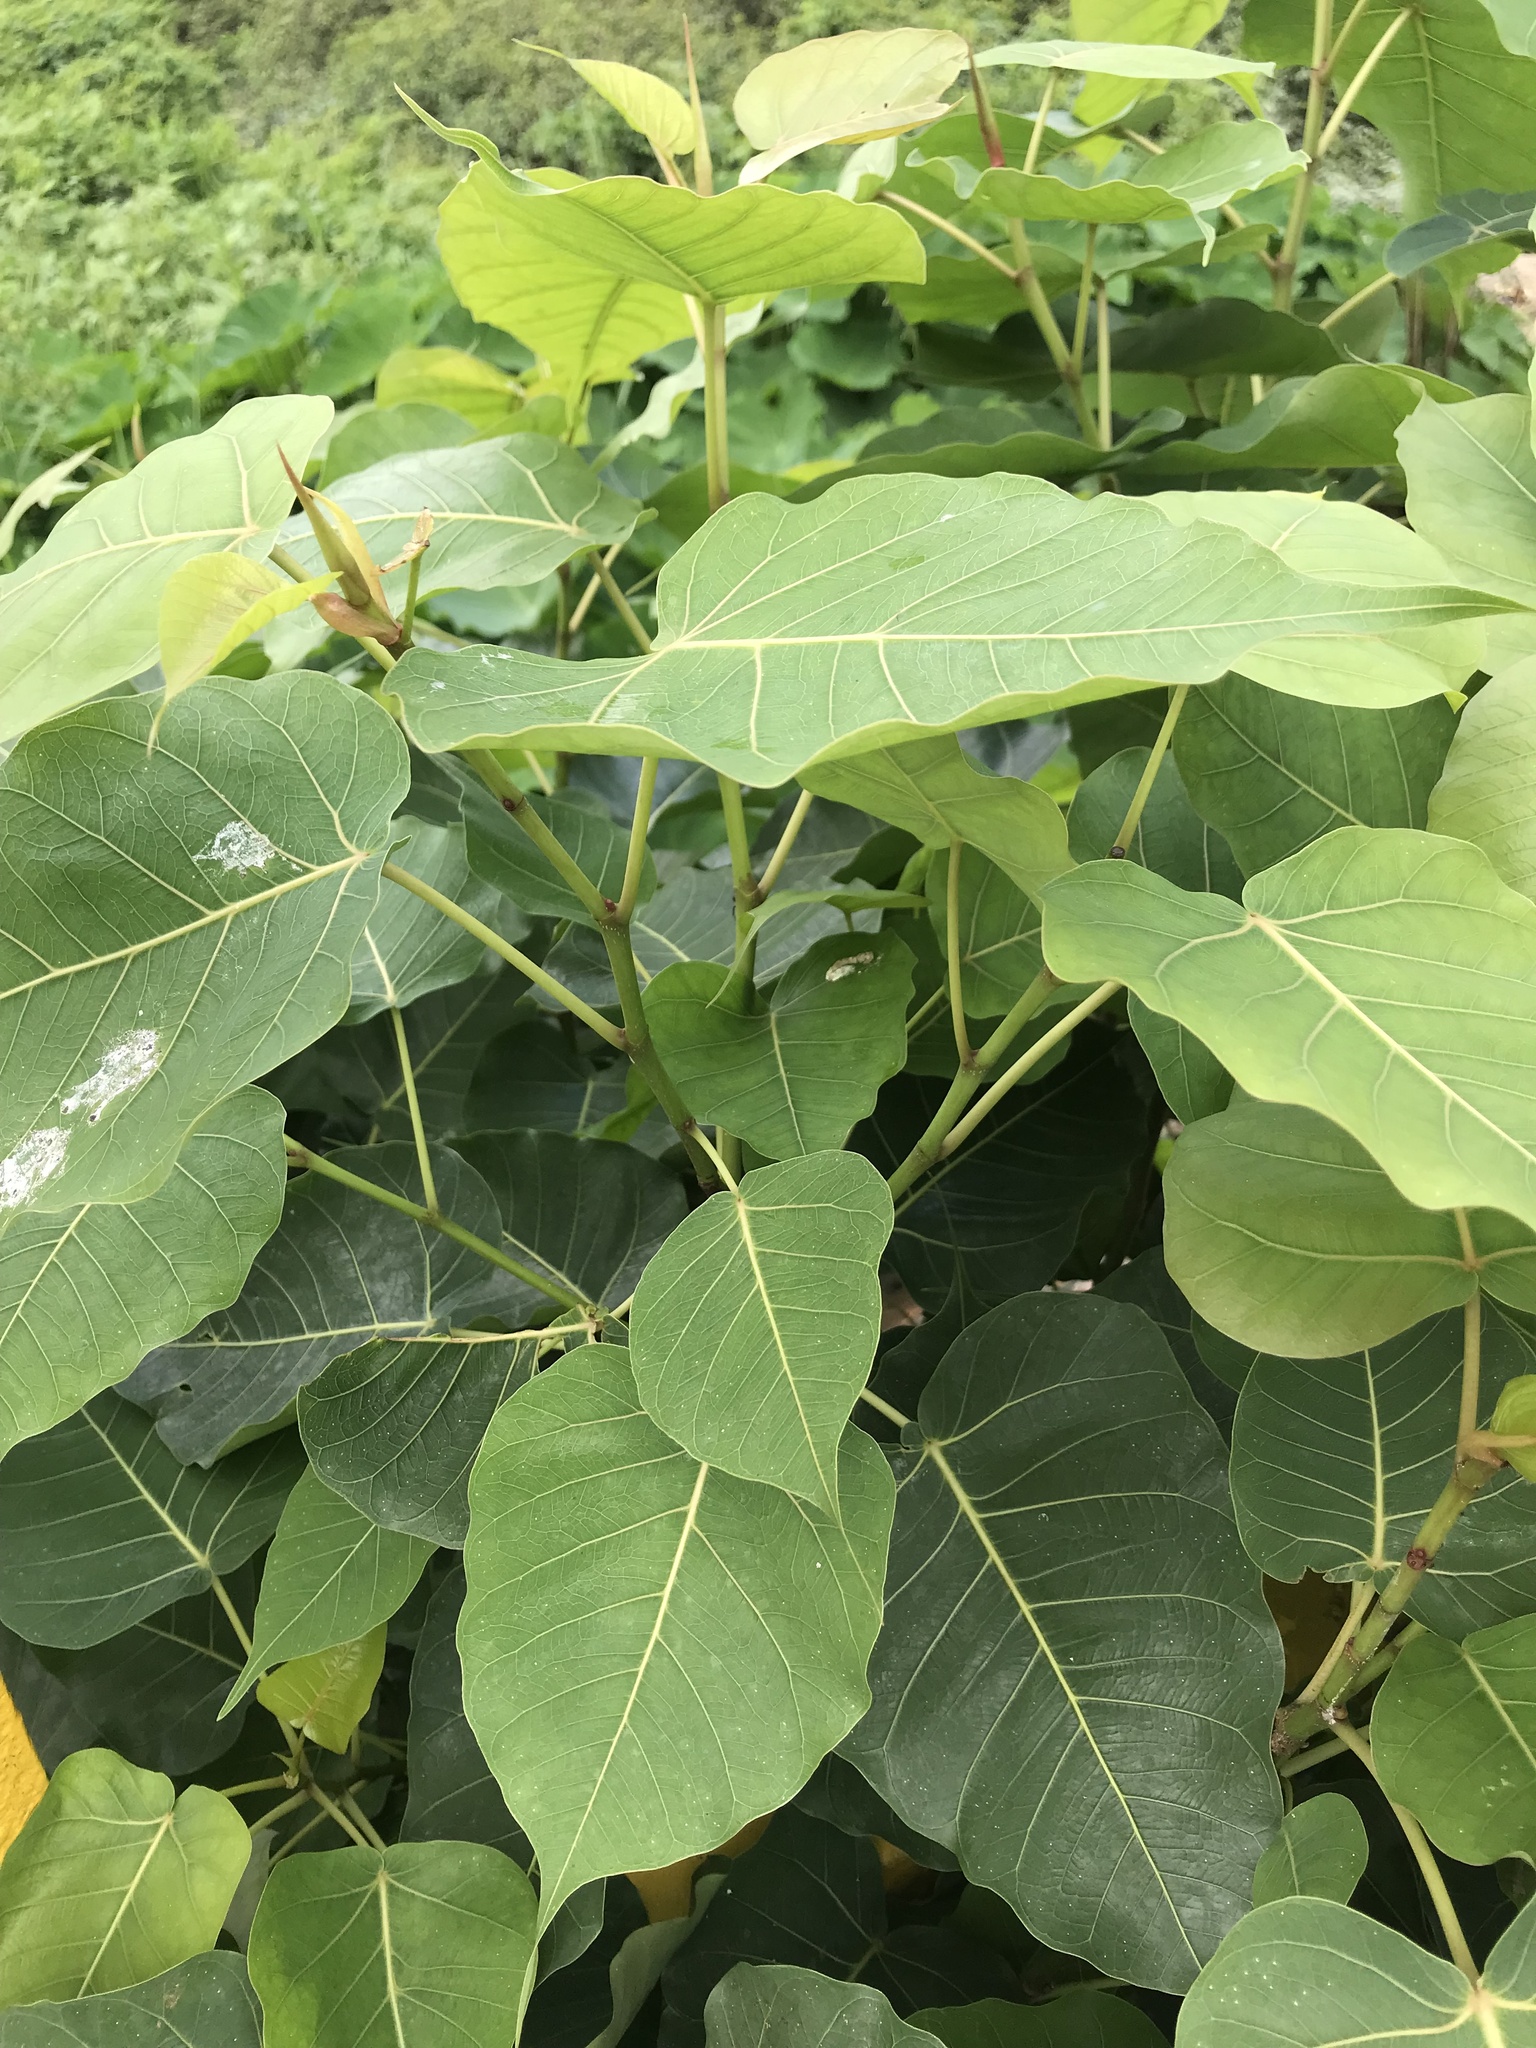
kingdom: Plantae
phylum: Tracheophyta
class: Magnoliopsida
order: Rosales
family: Moraceae
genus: Ficus
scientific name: Ficus religiosa
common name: Bodhi tree
